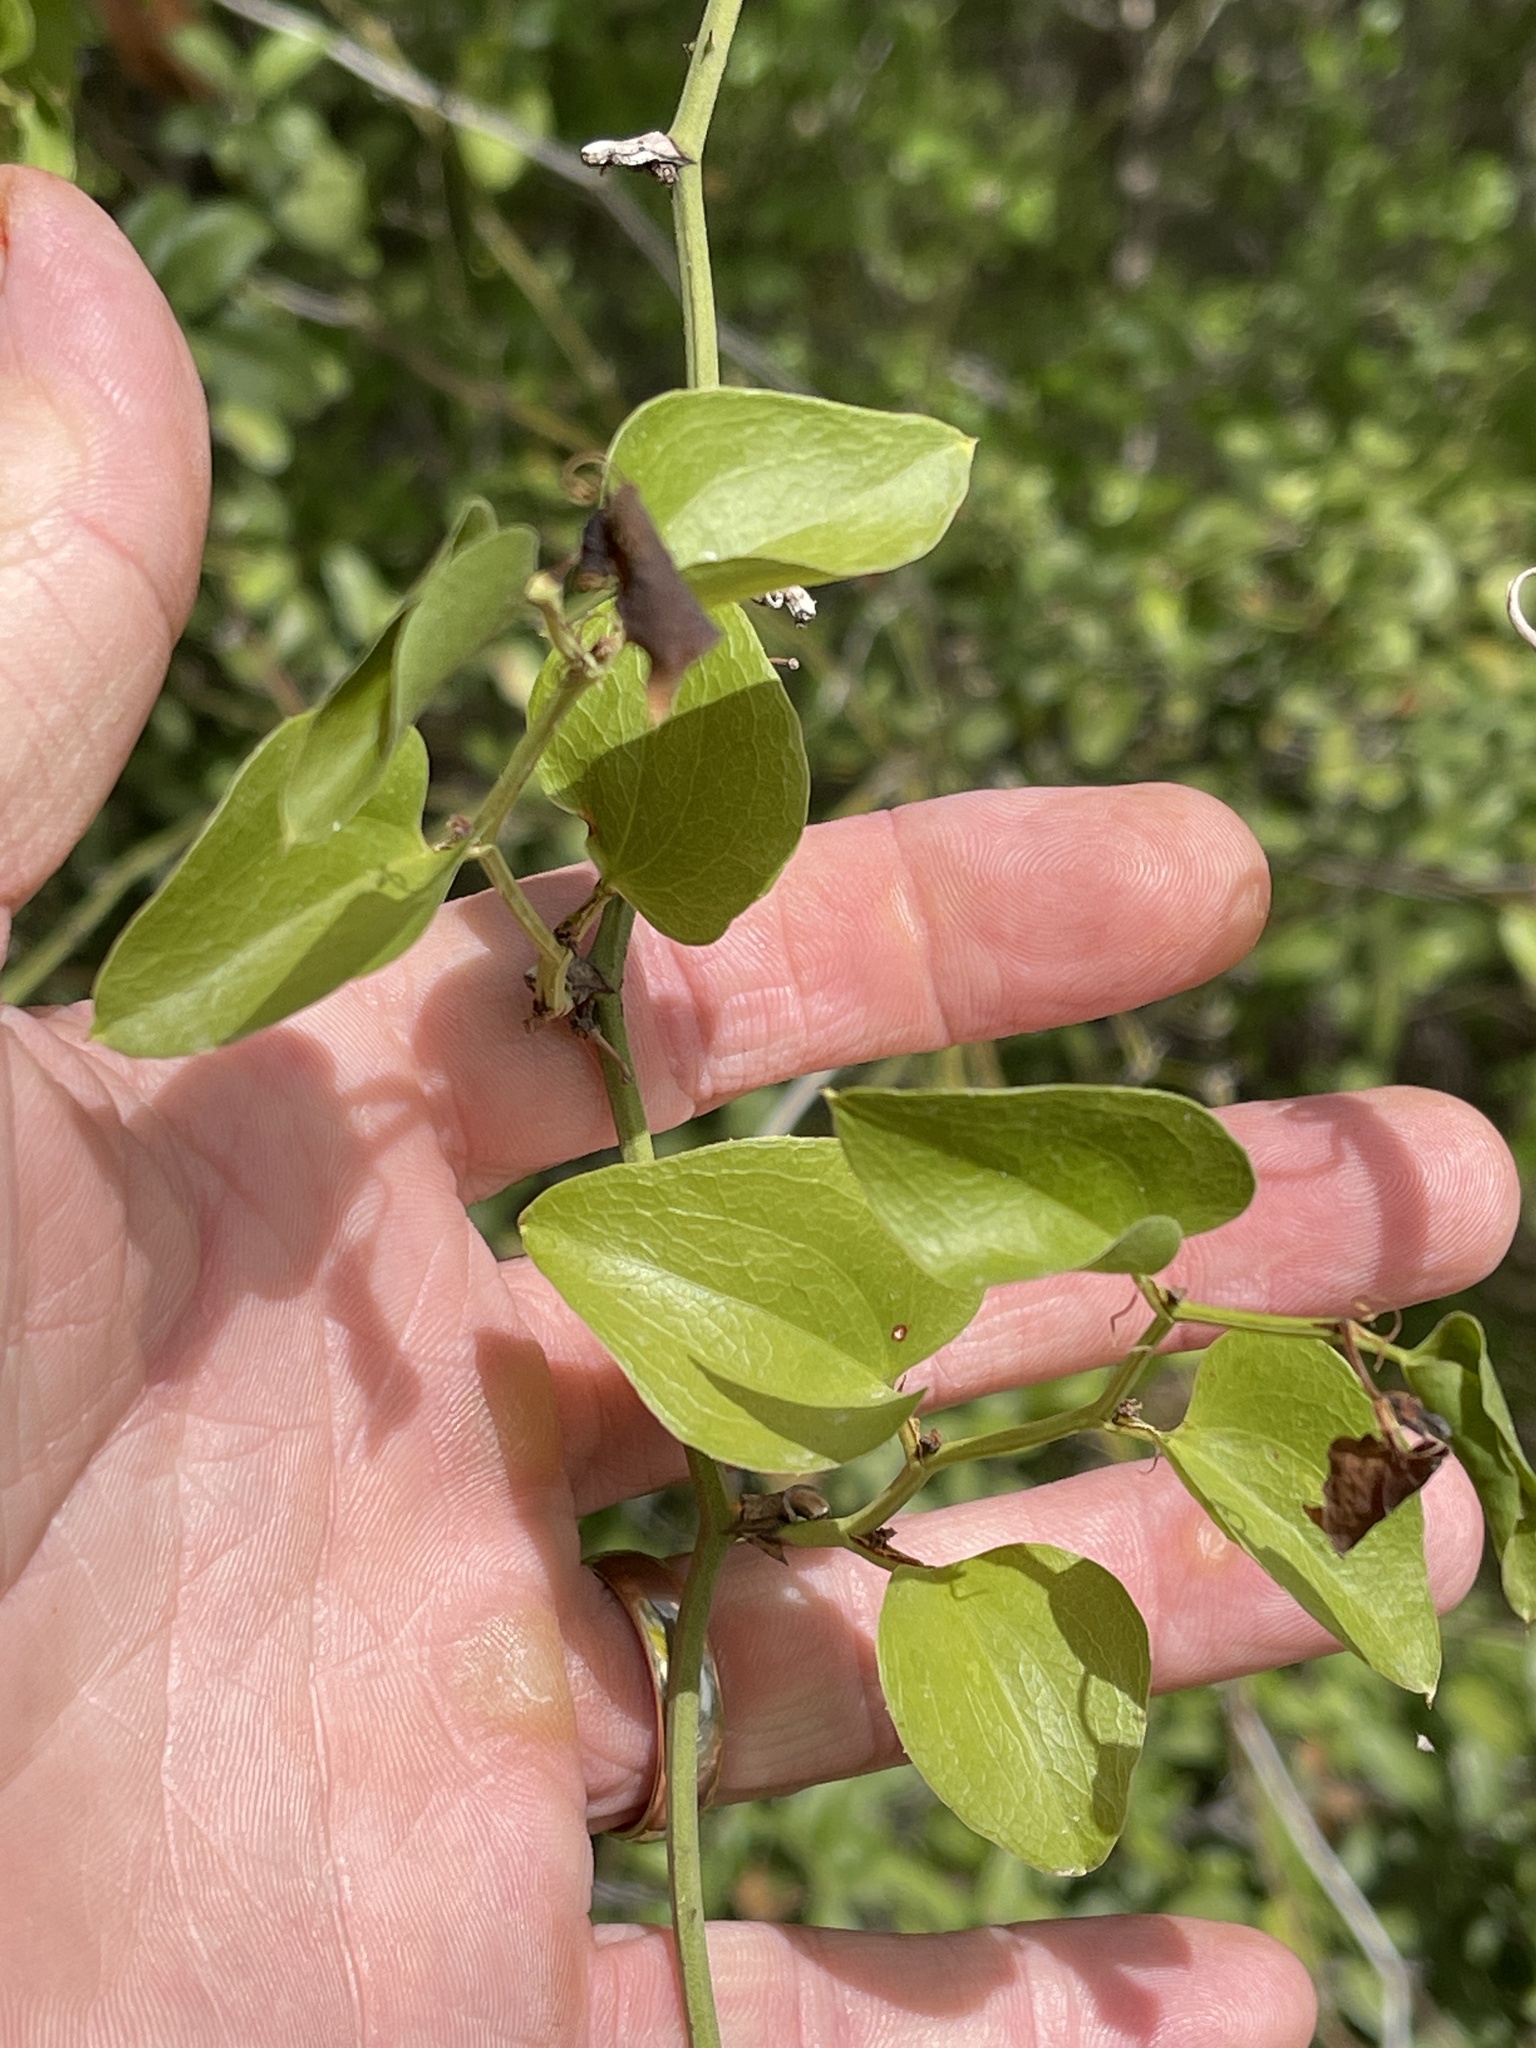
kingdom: Plantae
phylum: Tracheophyta
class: Liliopsida
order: Liliales
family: Smilacaceae
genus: Smilax
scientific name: Smilax bona-nox
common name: Catbrier
